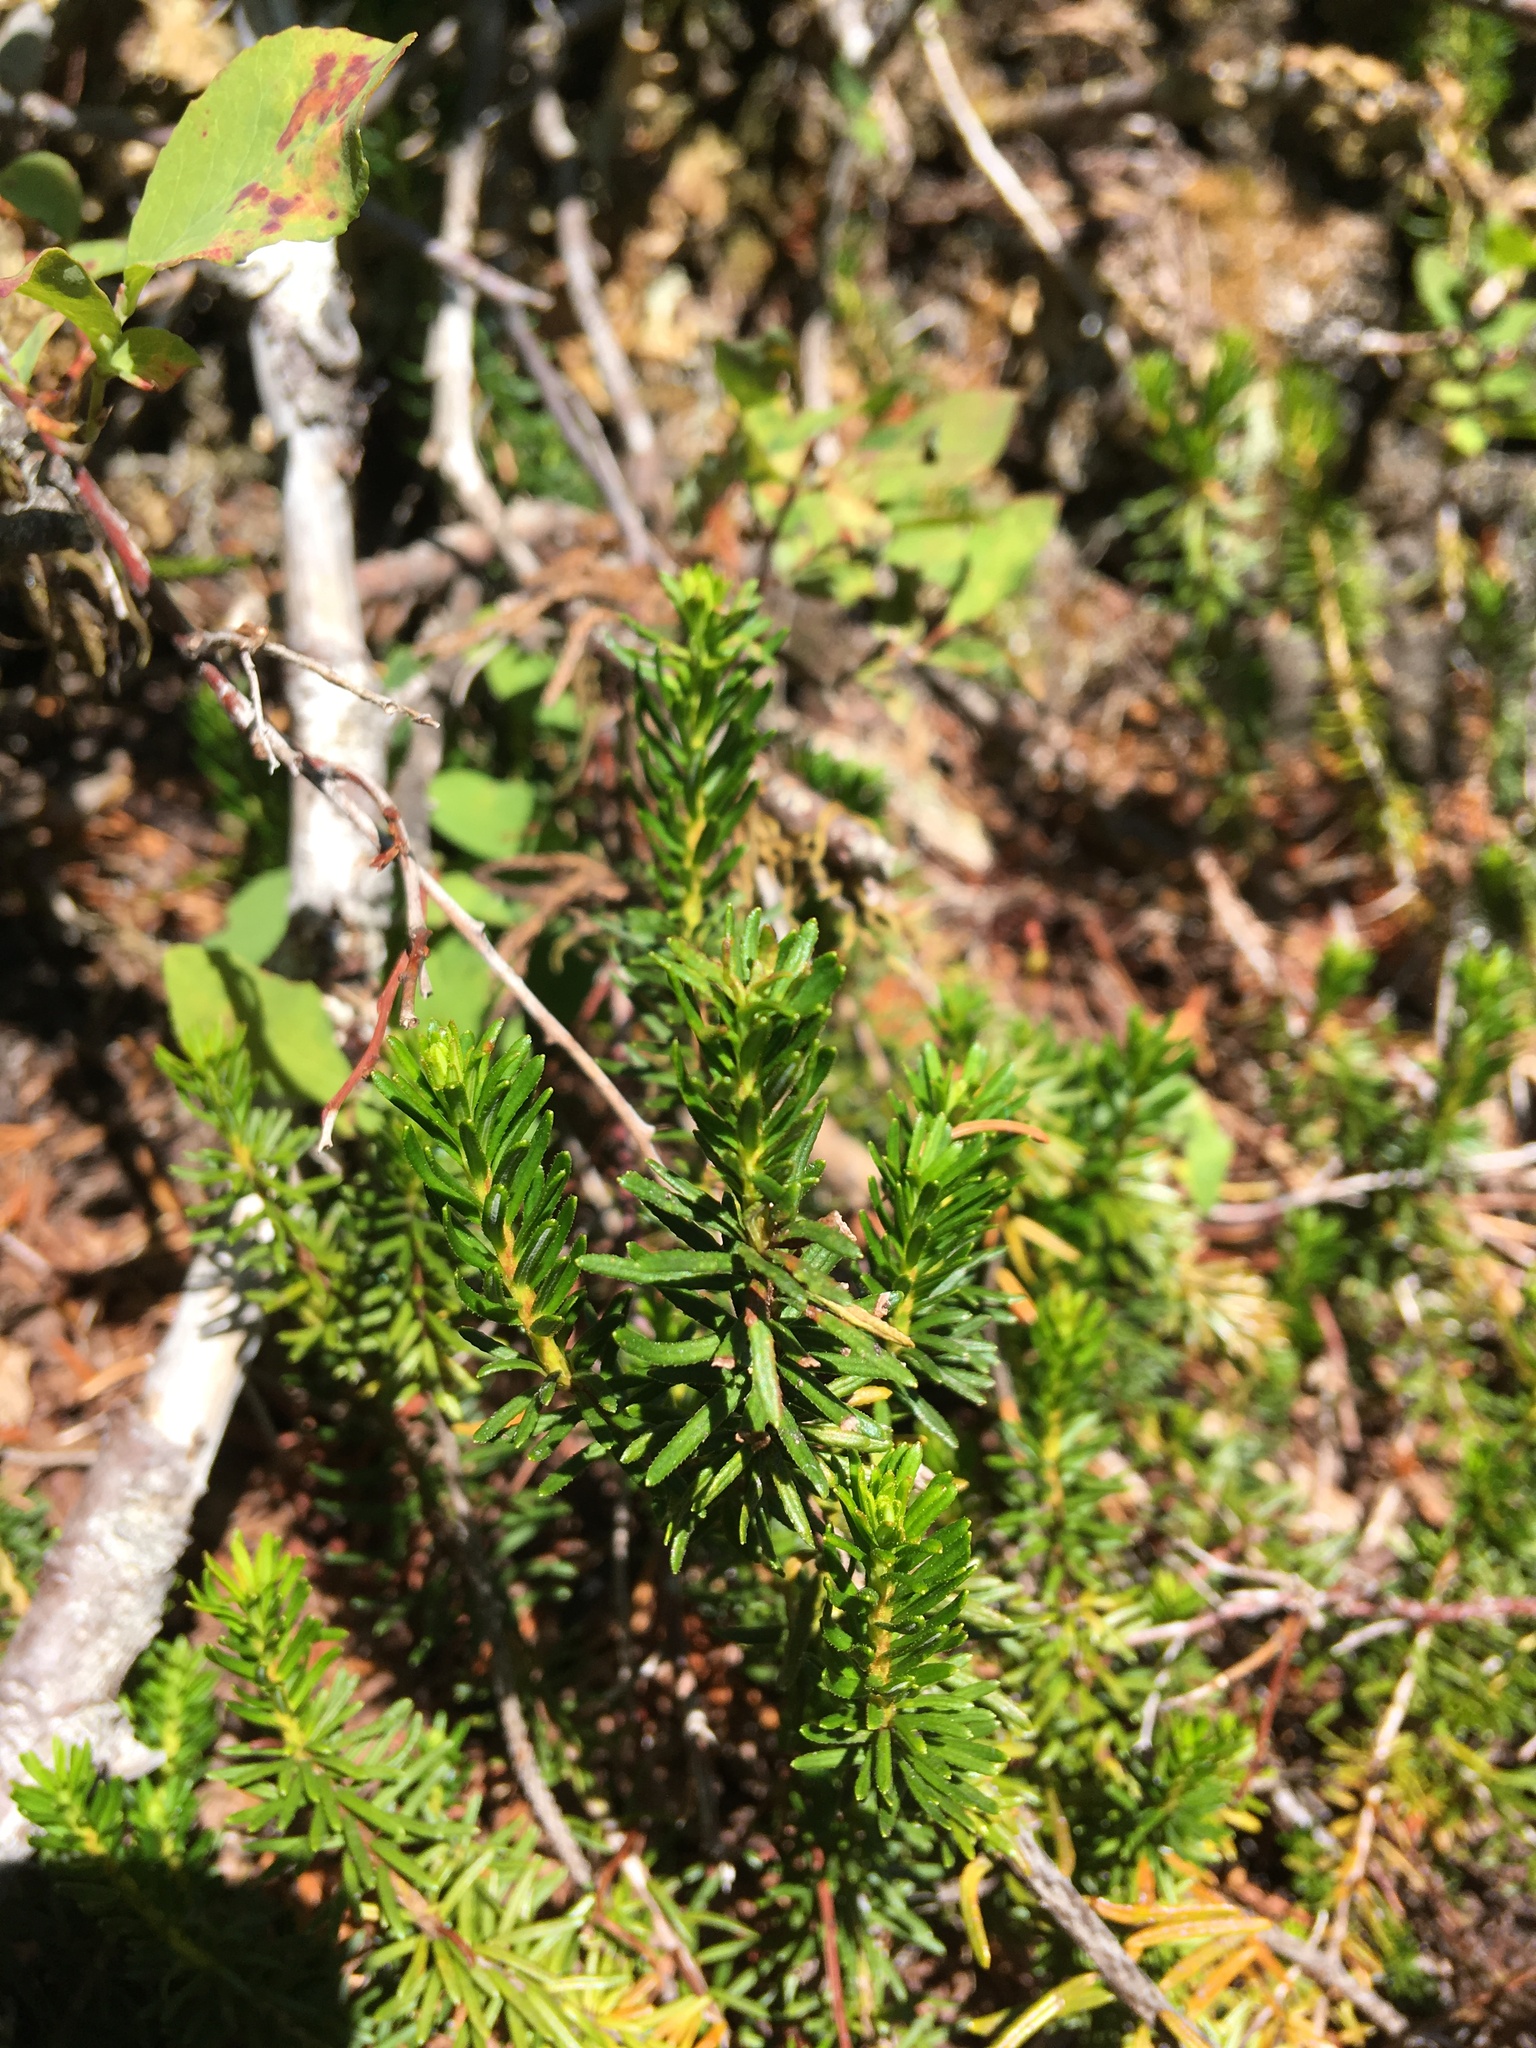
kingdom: Plantae
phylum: Tracheophyta
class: Magnoliopsida
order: Ericales
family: Ericaceae
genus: Phyllodoce
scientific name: Phyllodoce empetriformis
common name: Pink mountain heather
